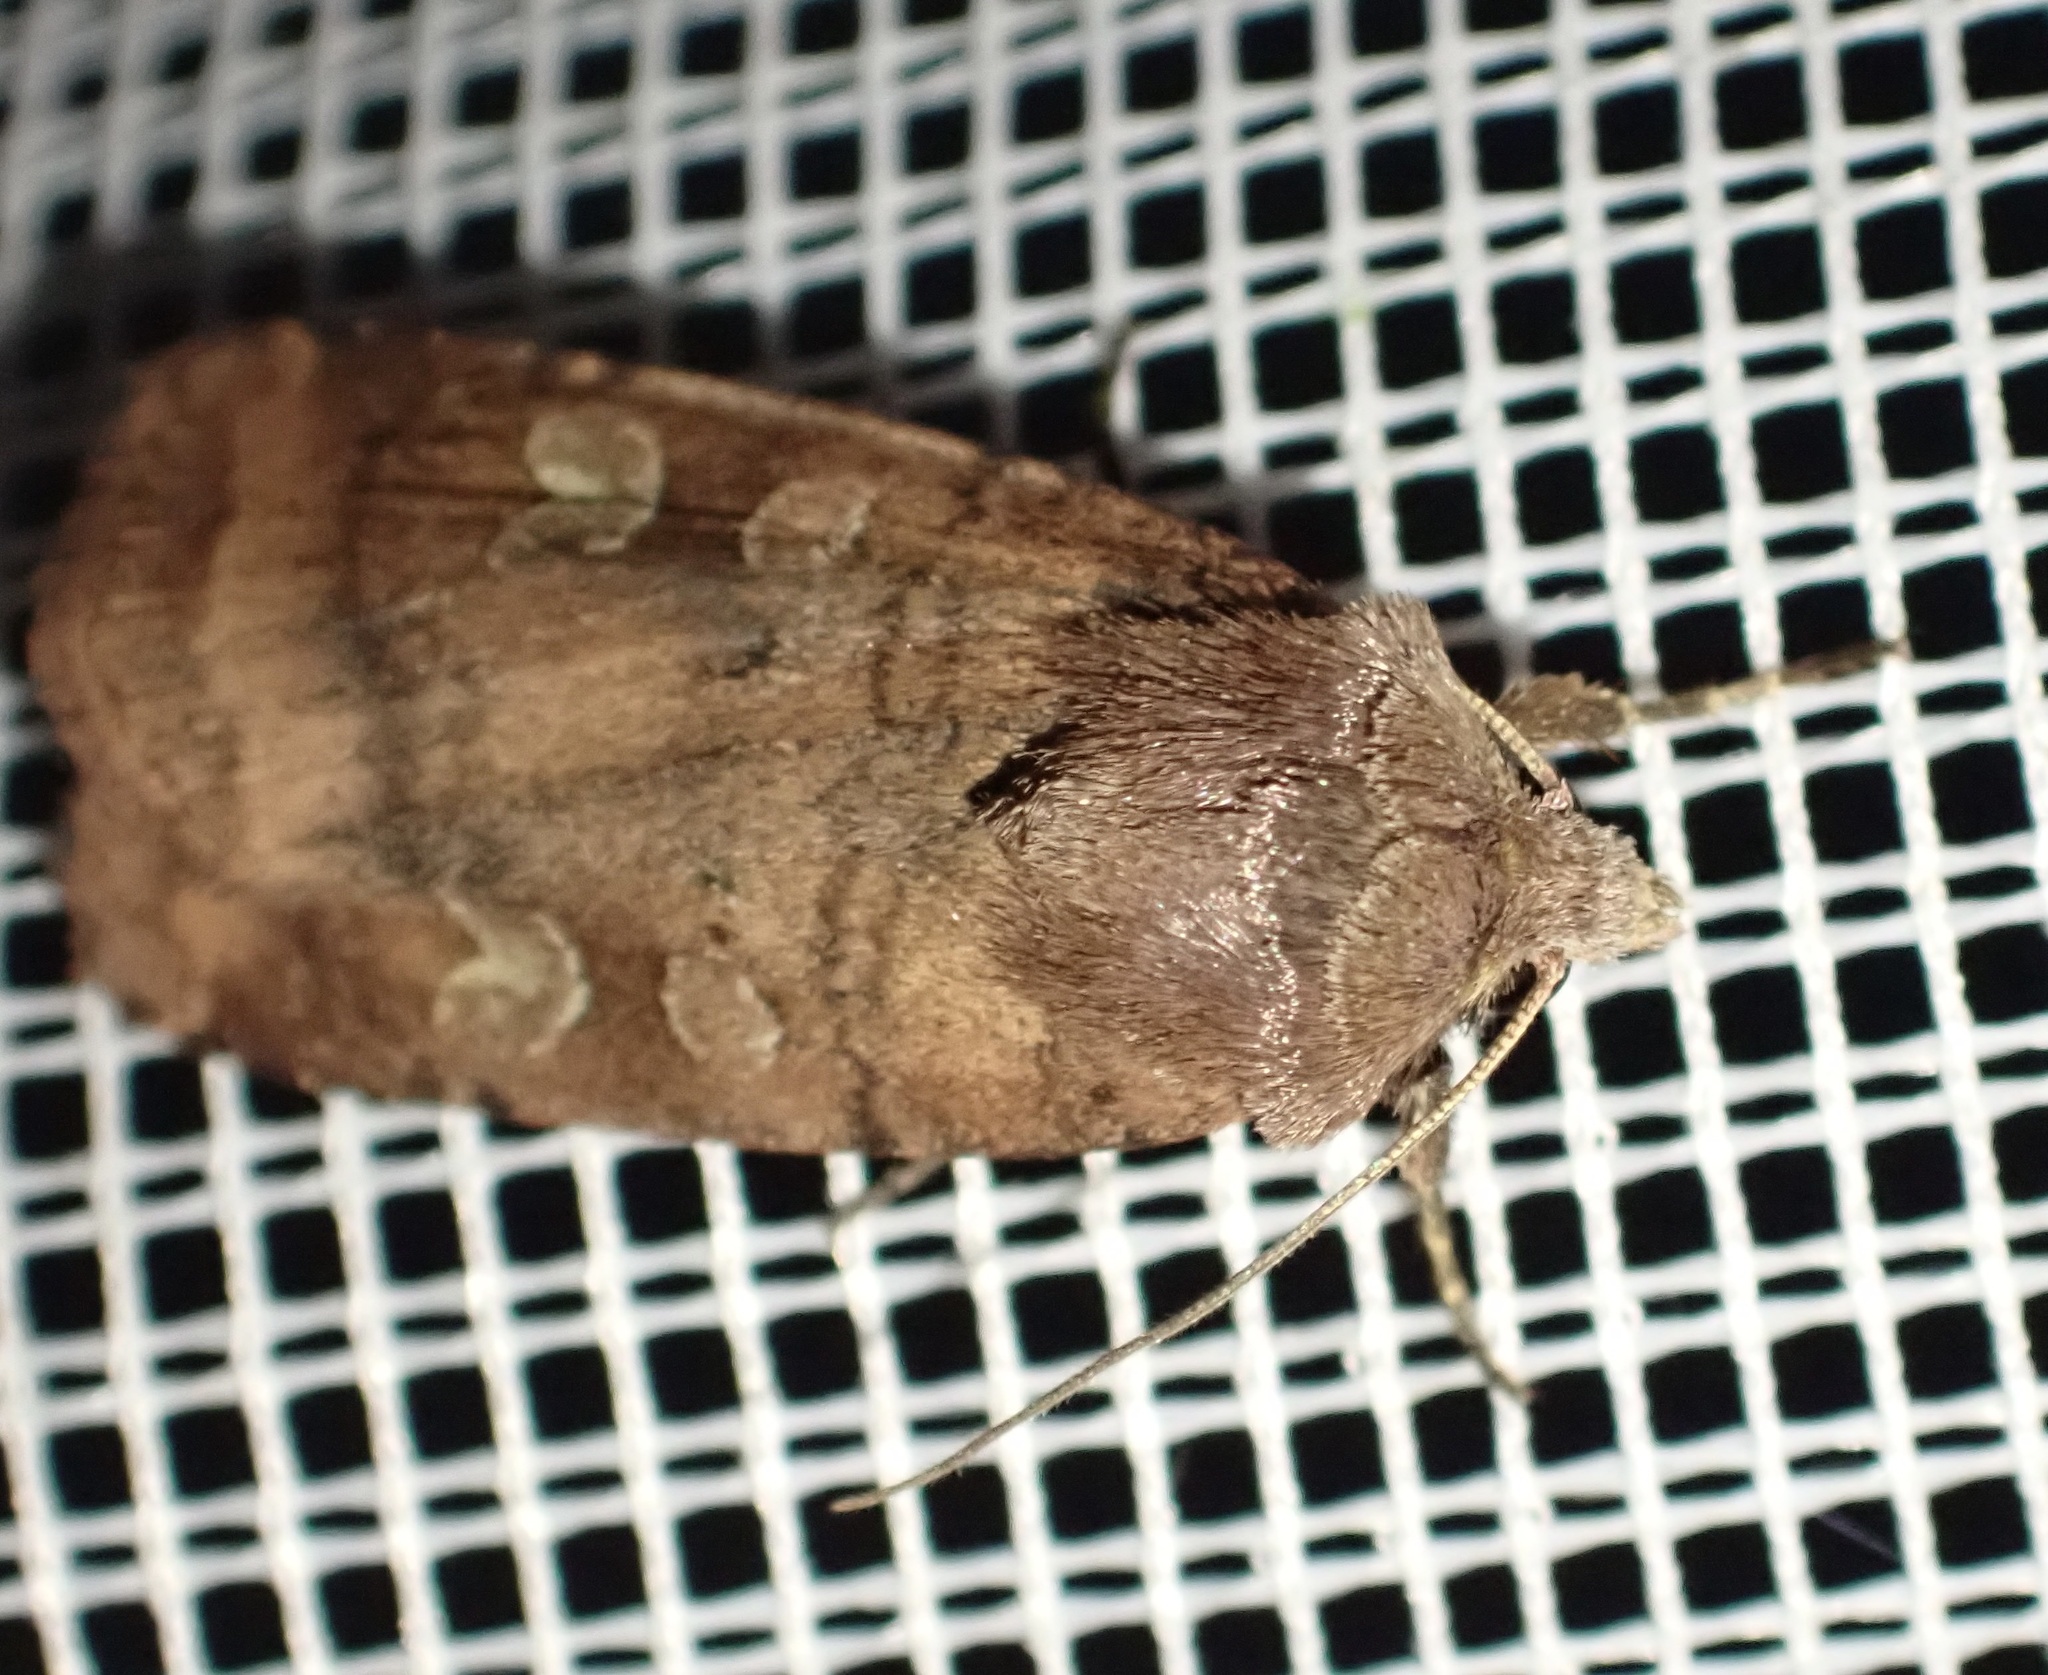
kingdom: Animalia
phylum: Arthropoda
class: Insecta
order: Lepidoptera
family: Noctuidae
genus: Diarsia
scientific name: Diarsia rubi
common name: Small square-spot
